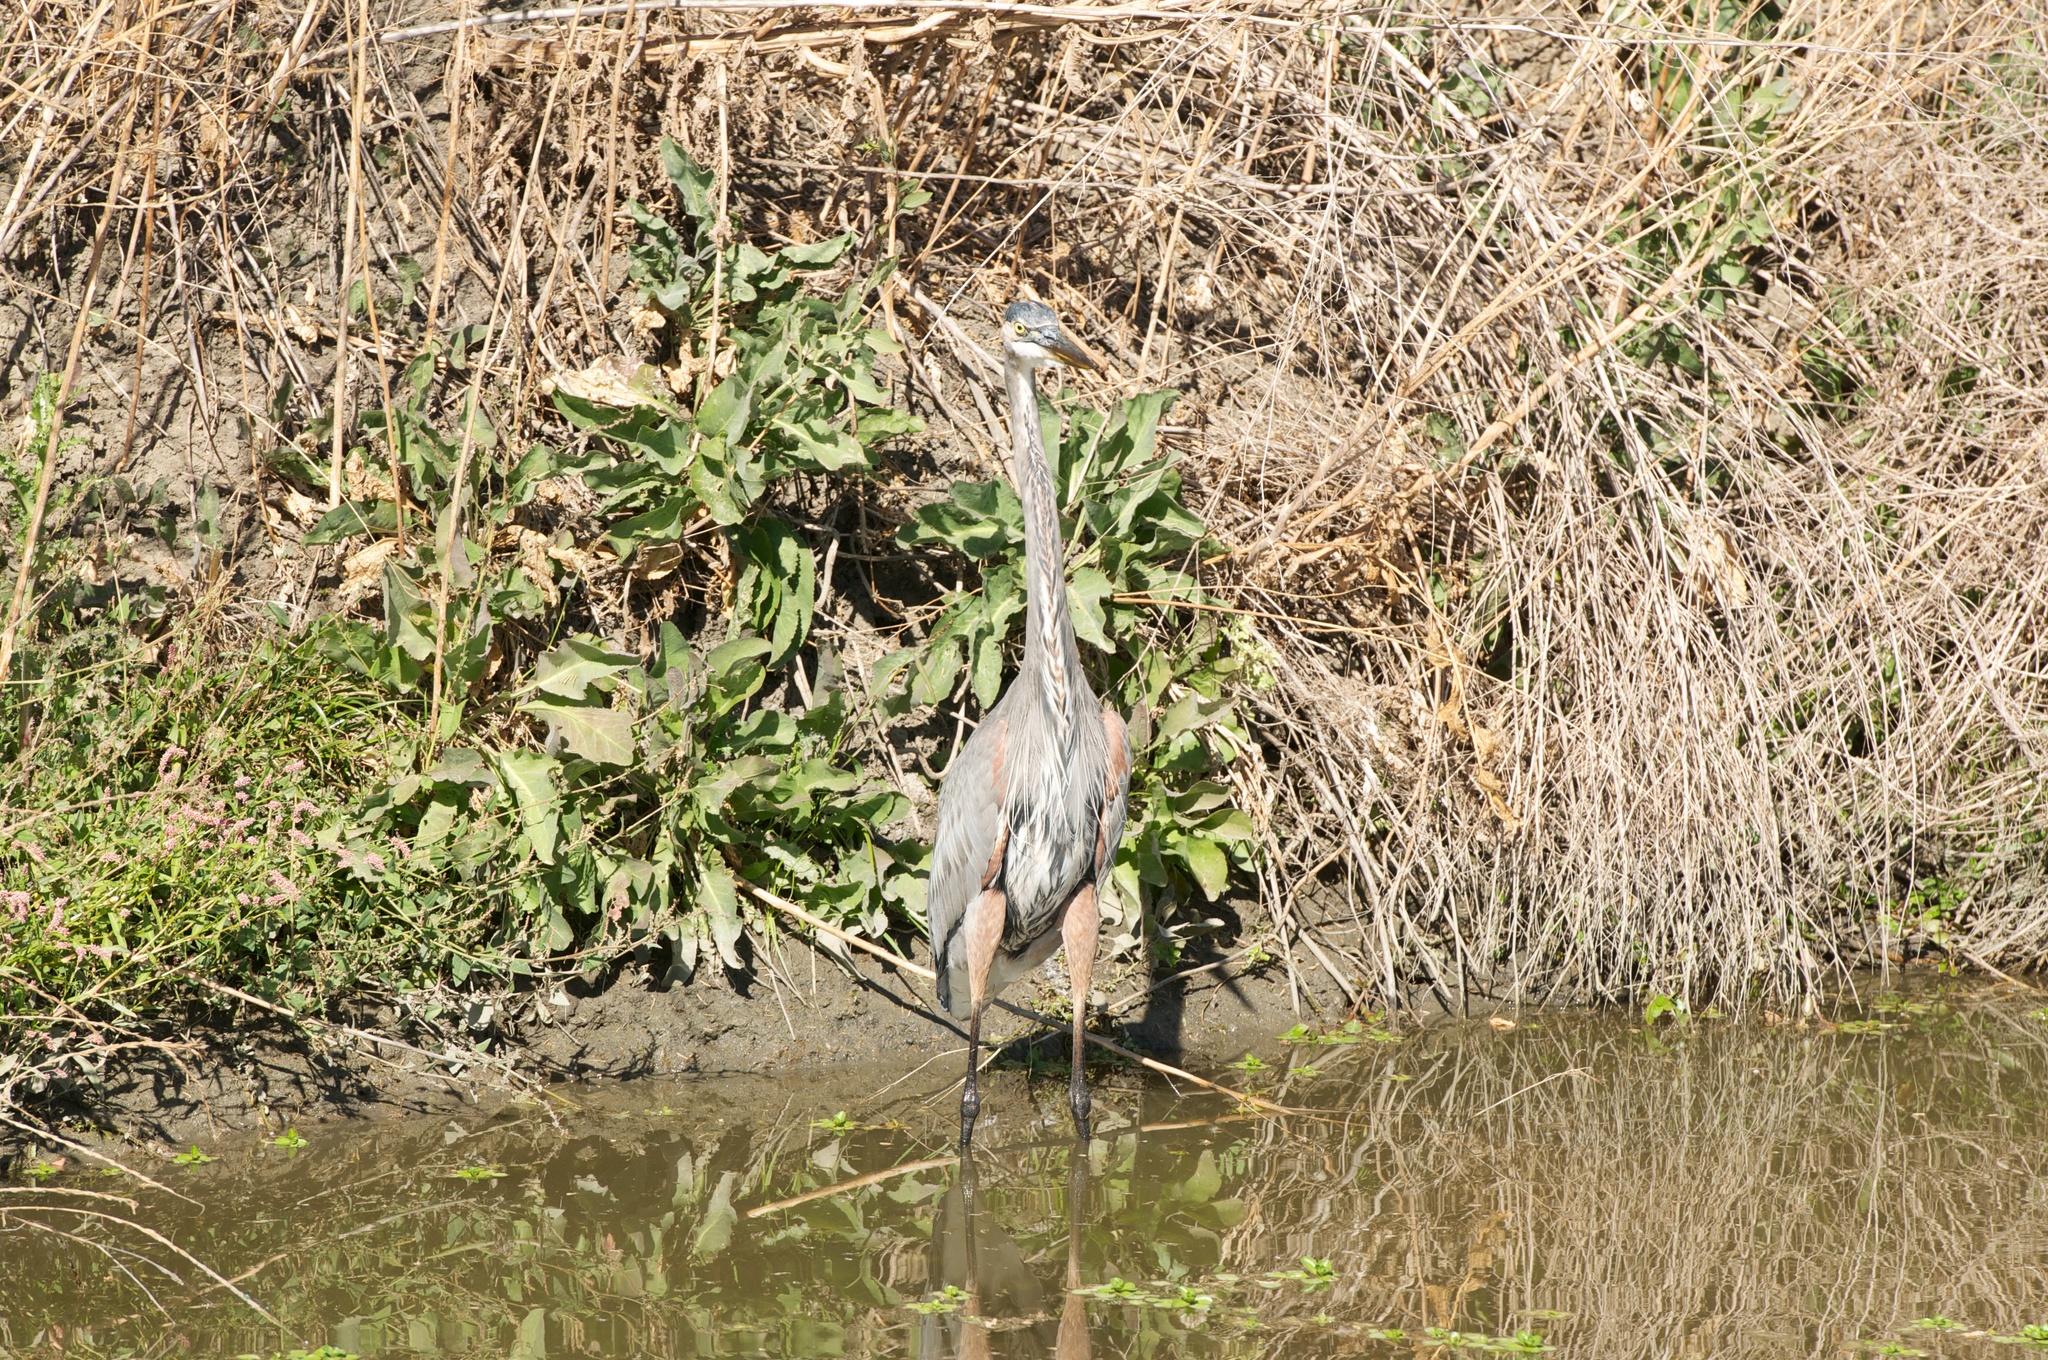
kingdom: Animalia
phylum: Chordata
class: Aves
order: Pelecaniformes
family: Ardeidae
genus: Ardea
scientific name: Ardea herodias
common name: Great blue heron
